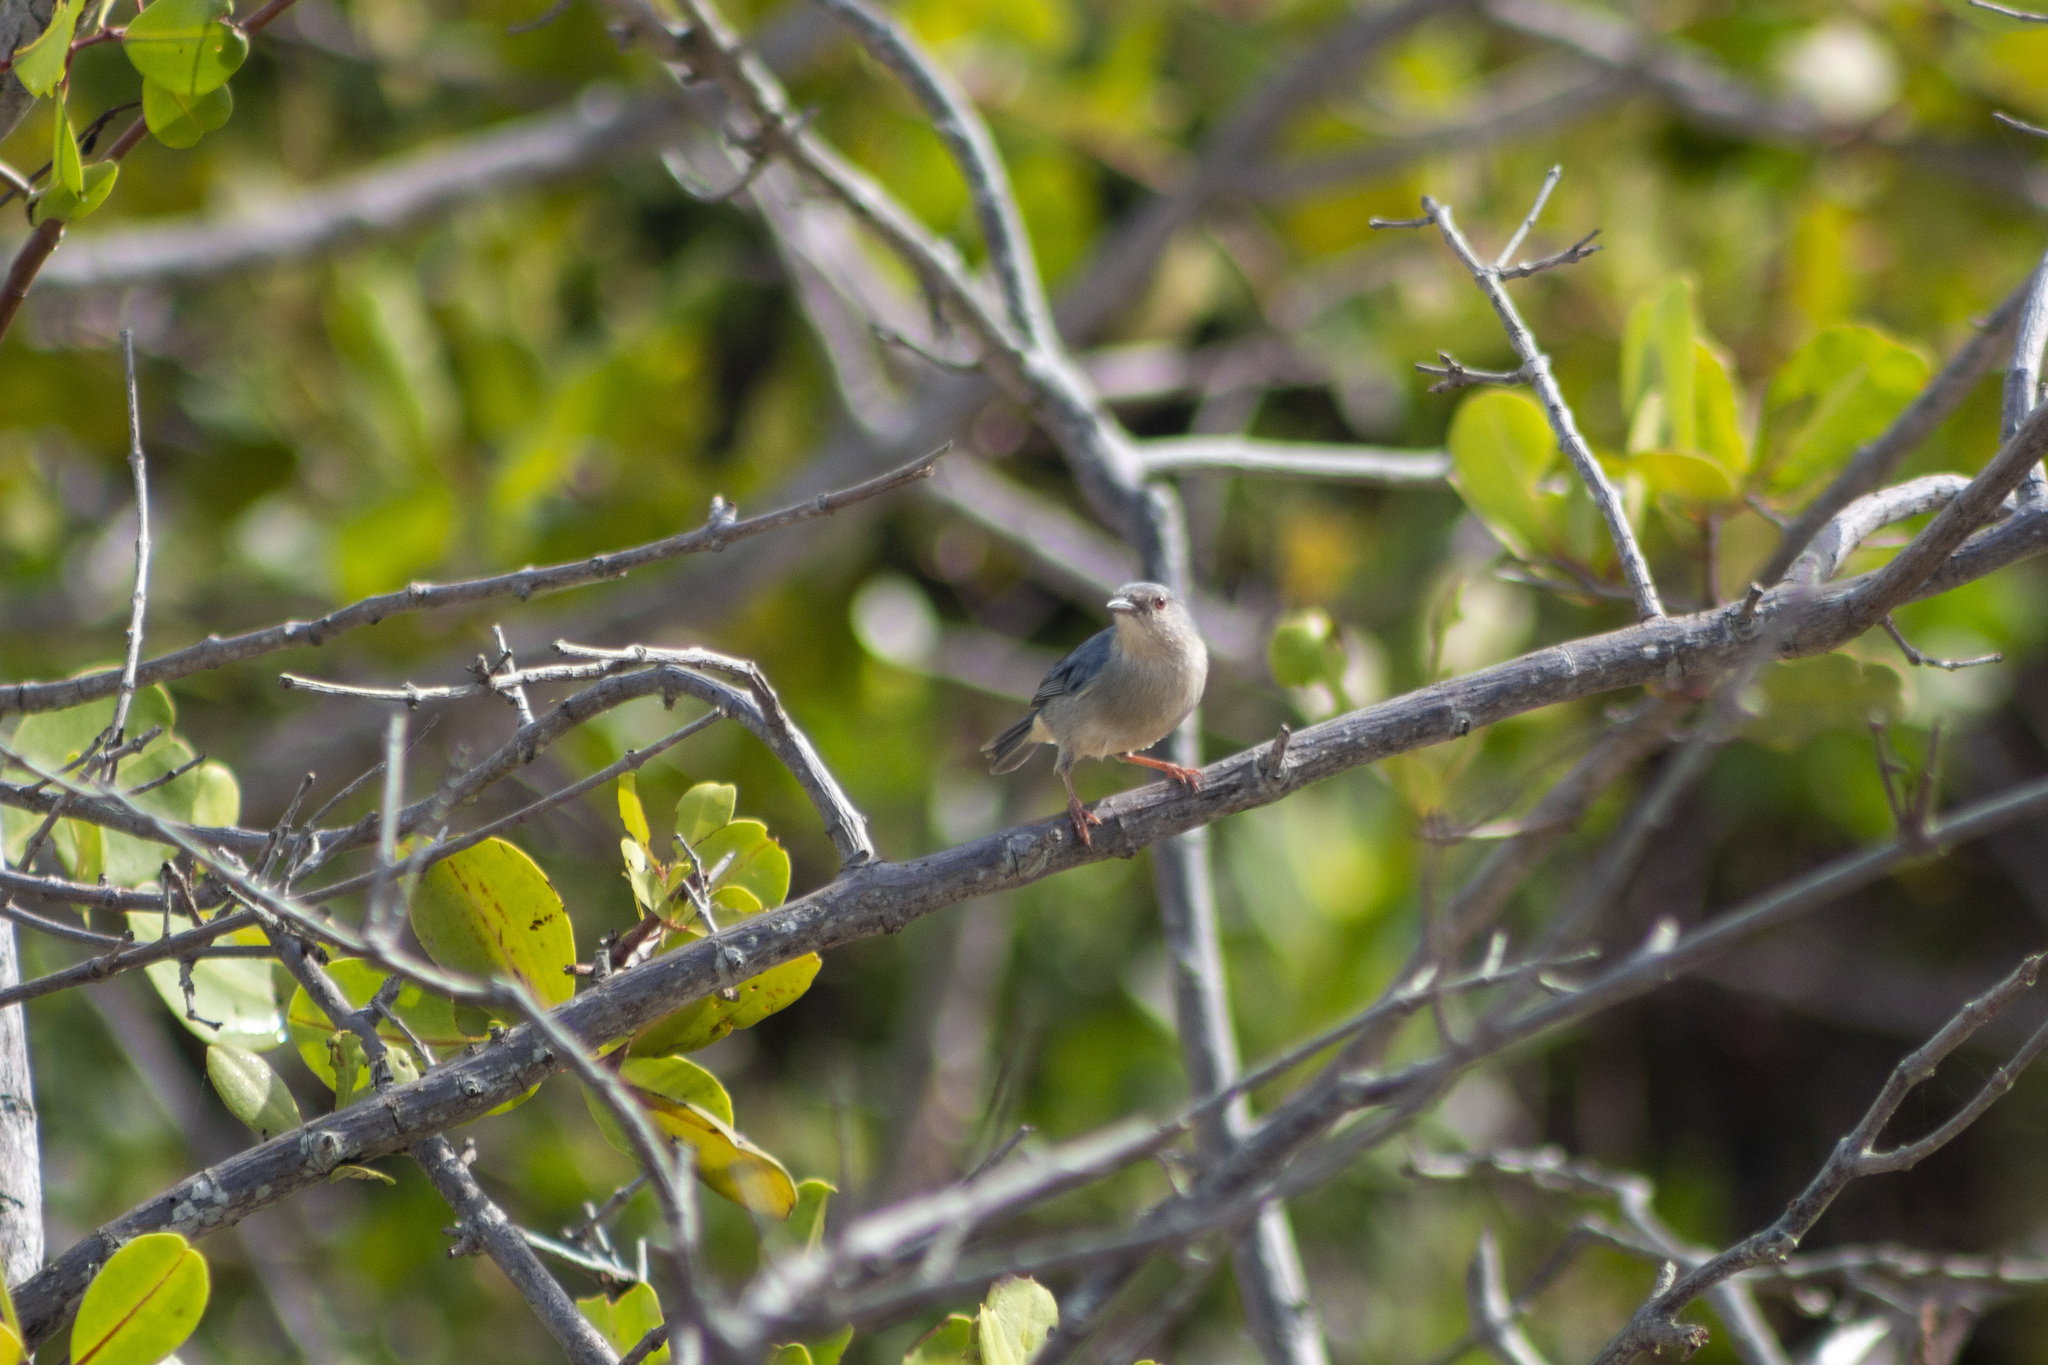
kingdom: Animalia
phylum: Chordata
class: Aves
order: Passeriformes
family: Thraupidae
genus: Conirostrum
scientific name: Conirostrum bicolor
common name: Bicolored conebill
